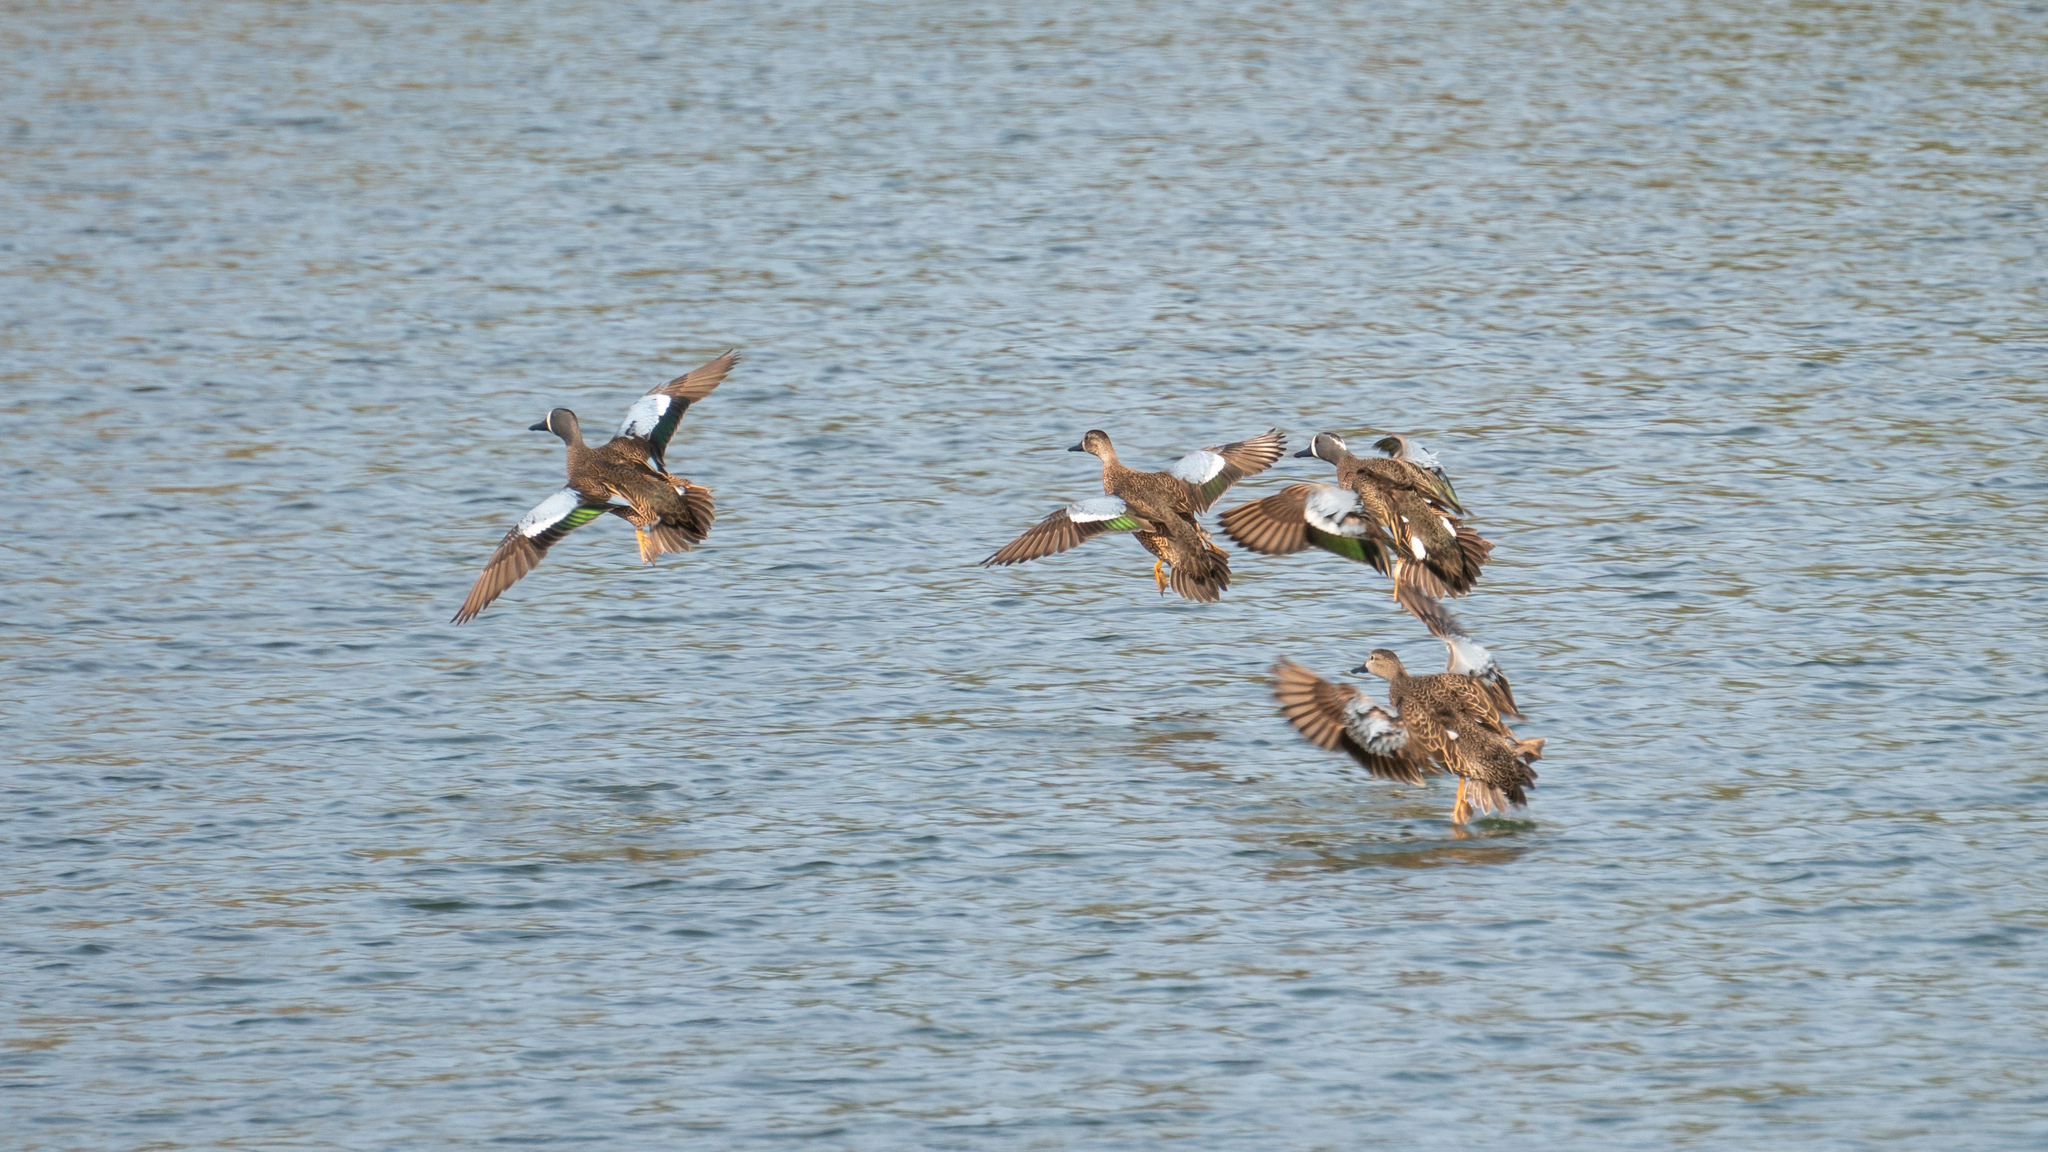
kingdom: Animalia
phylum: Chordata
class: Aves
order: Anseriformes
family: Anatidae
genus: Spatula
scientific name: Spatula discors
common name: Blue-winged teal
